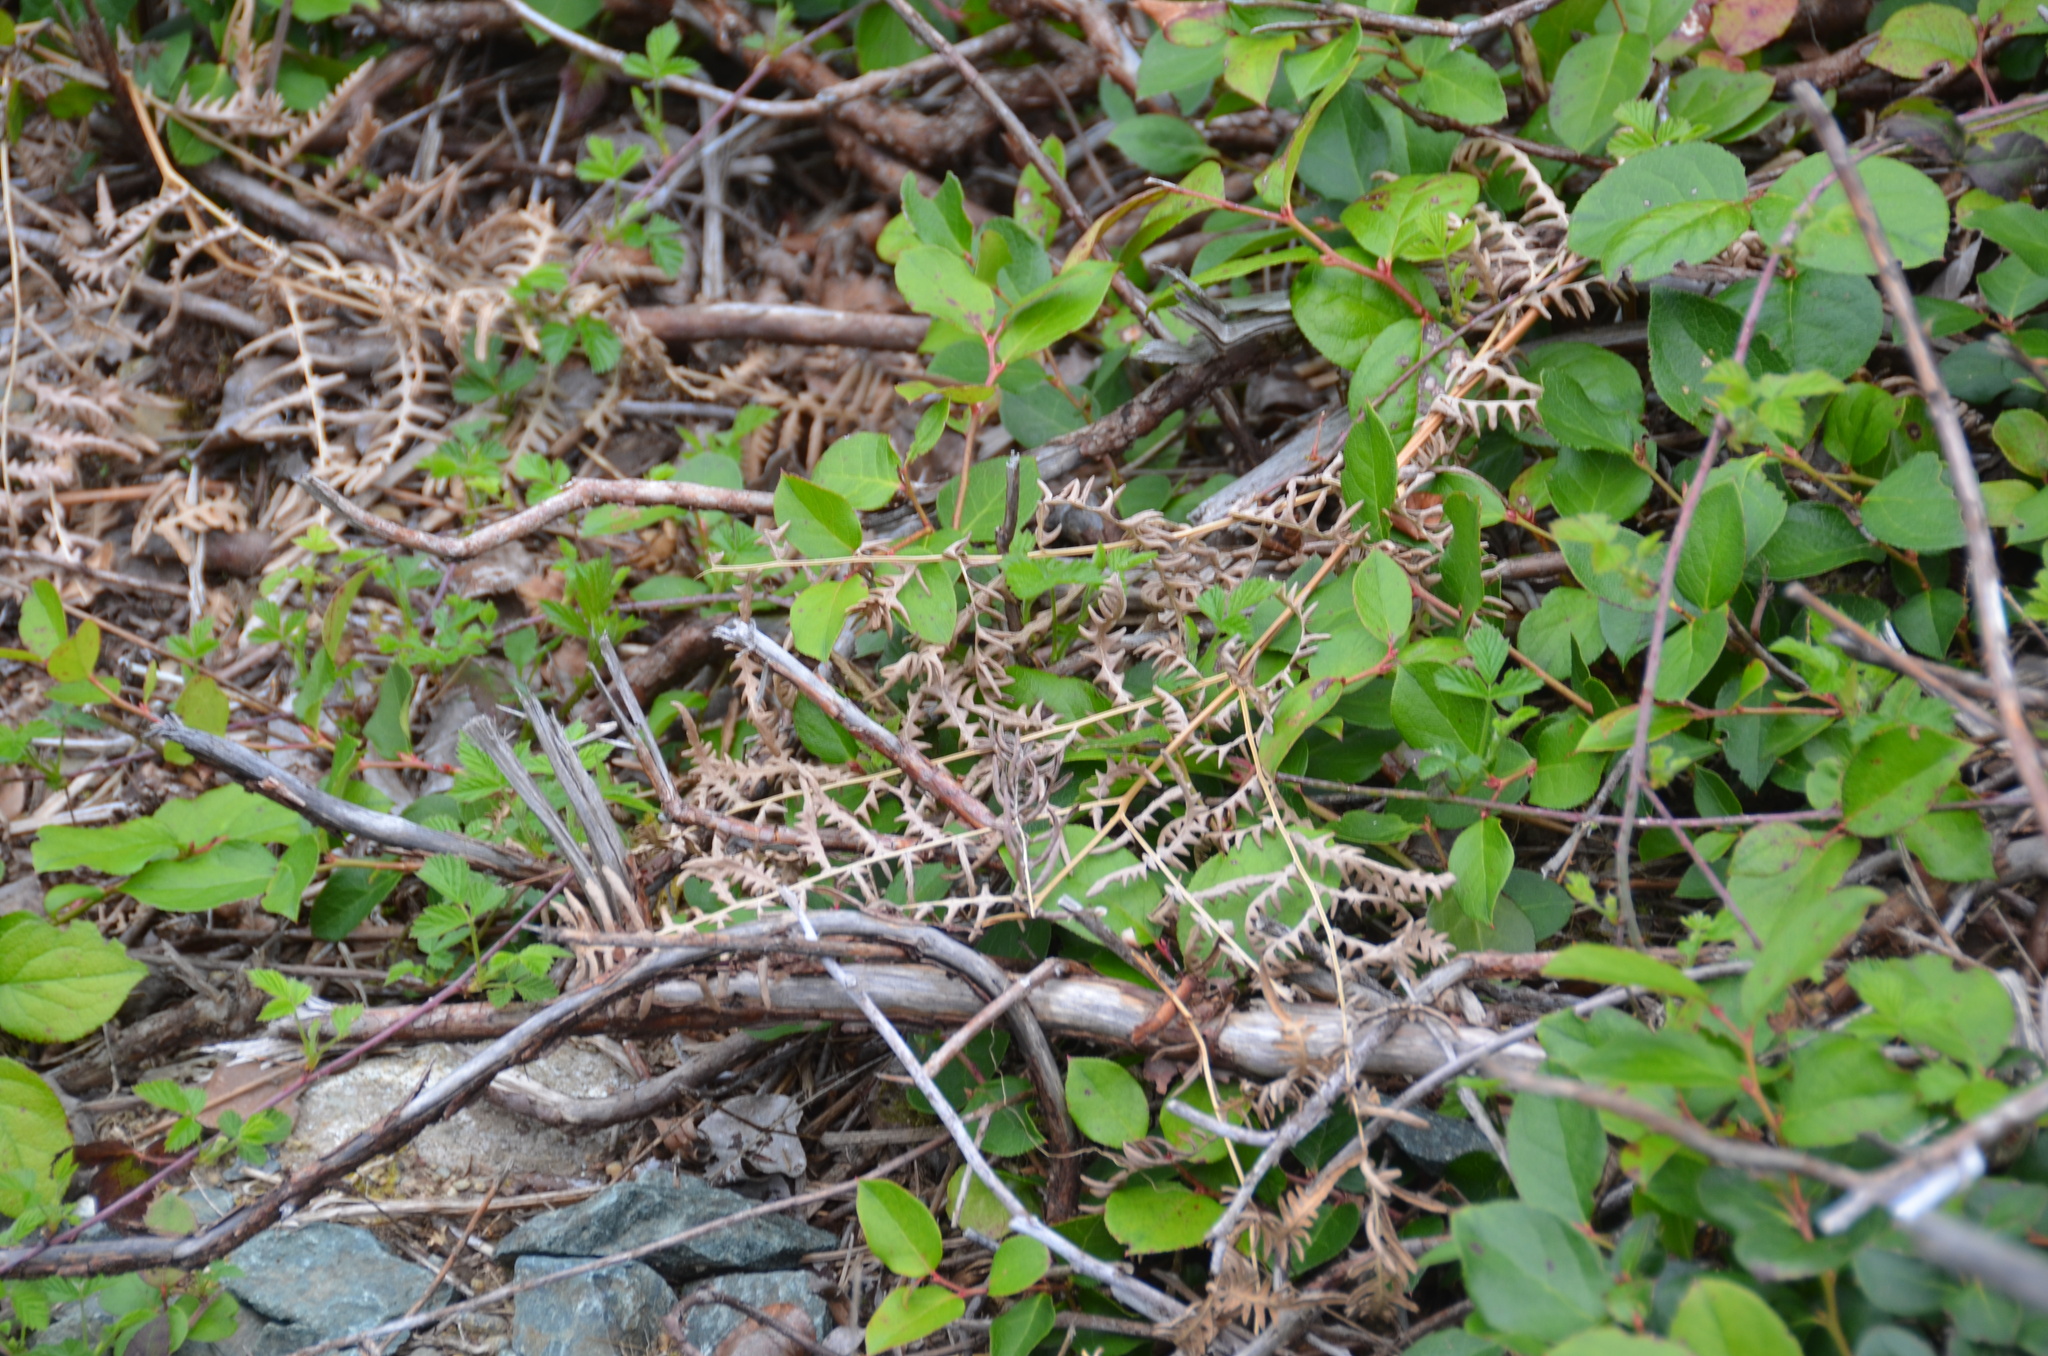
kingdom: Plantae
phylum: Tracheophyta
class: Polypodiopsida
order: Polypodiales
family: Dennstaedtiaceae
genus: Pteridium
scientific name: Pteridium aquilinum
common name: Bracken
